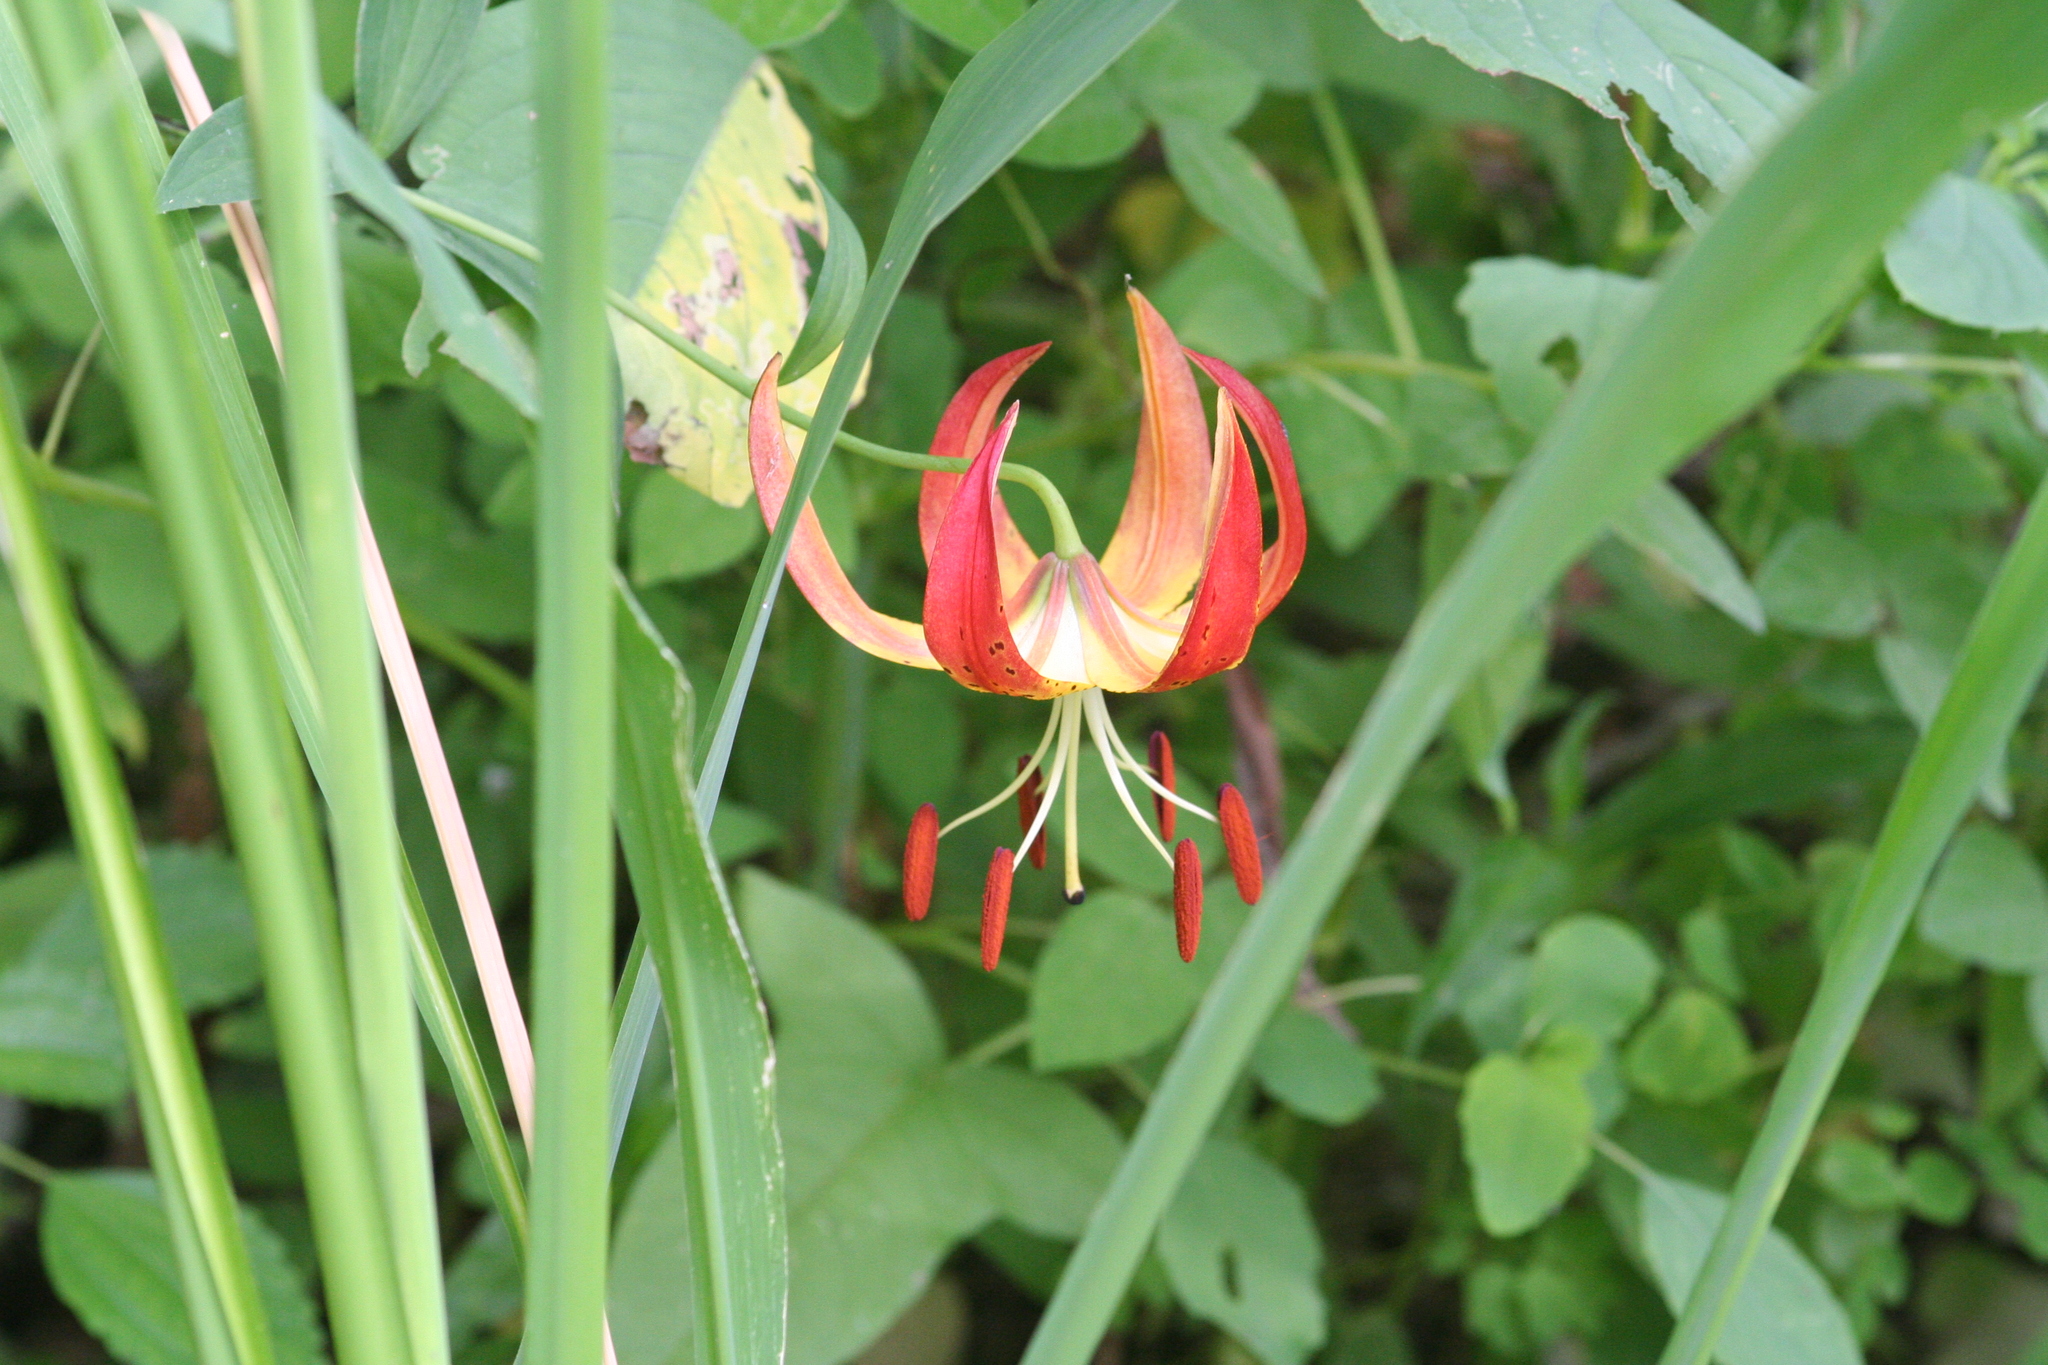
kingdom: Plantae
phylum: Tracheophyta
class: Liliopsida
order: Liliales
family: Liliaceae
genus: Lilium
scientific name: Lilium superbum
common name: American turk's-cap lily
